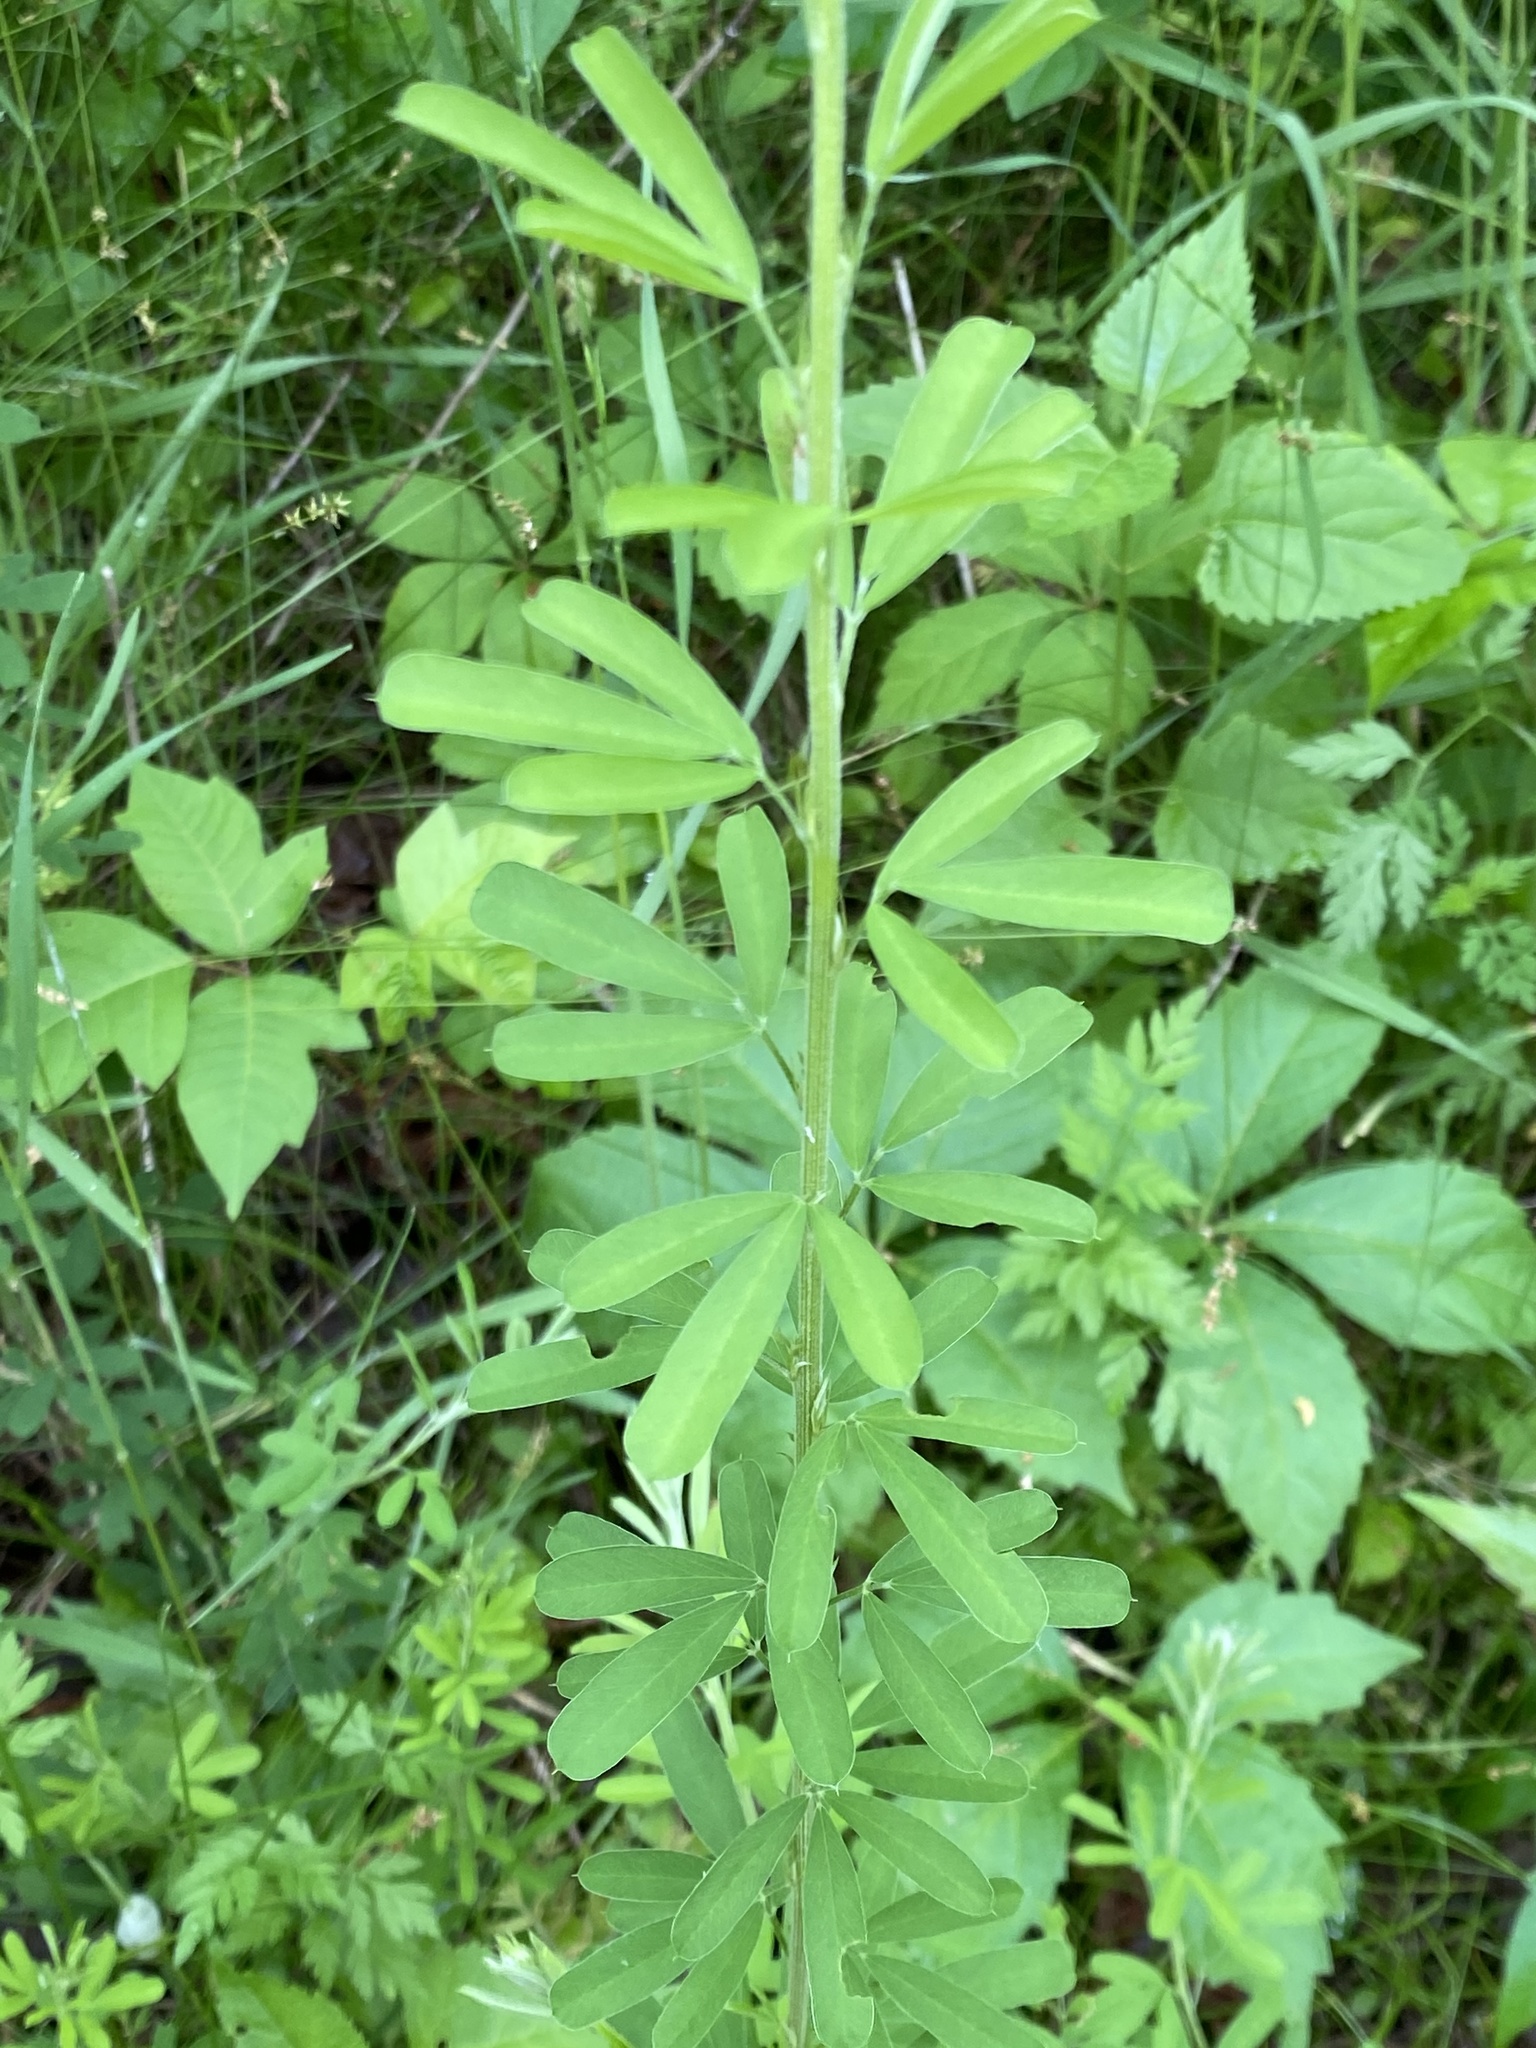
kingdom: Plantae
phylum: Tracheophyta
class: Magnoliopsida
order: Fabales
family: Fabaceae
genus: Lespedeza
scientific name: Lespedeza cuneata
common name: Chinese bush-clover
